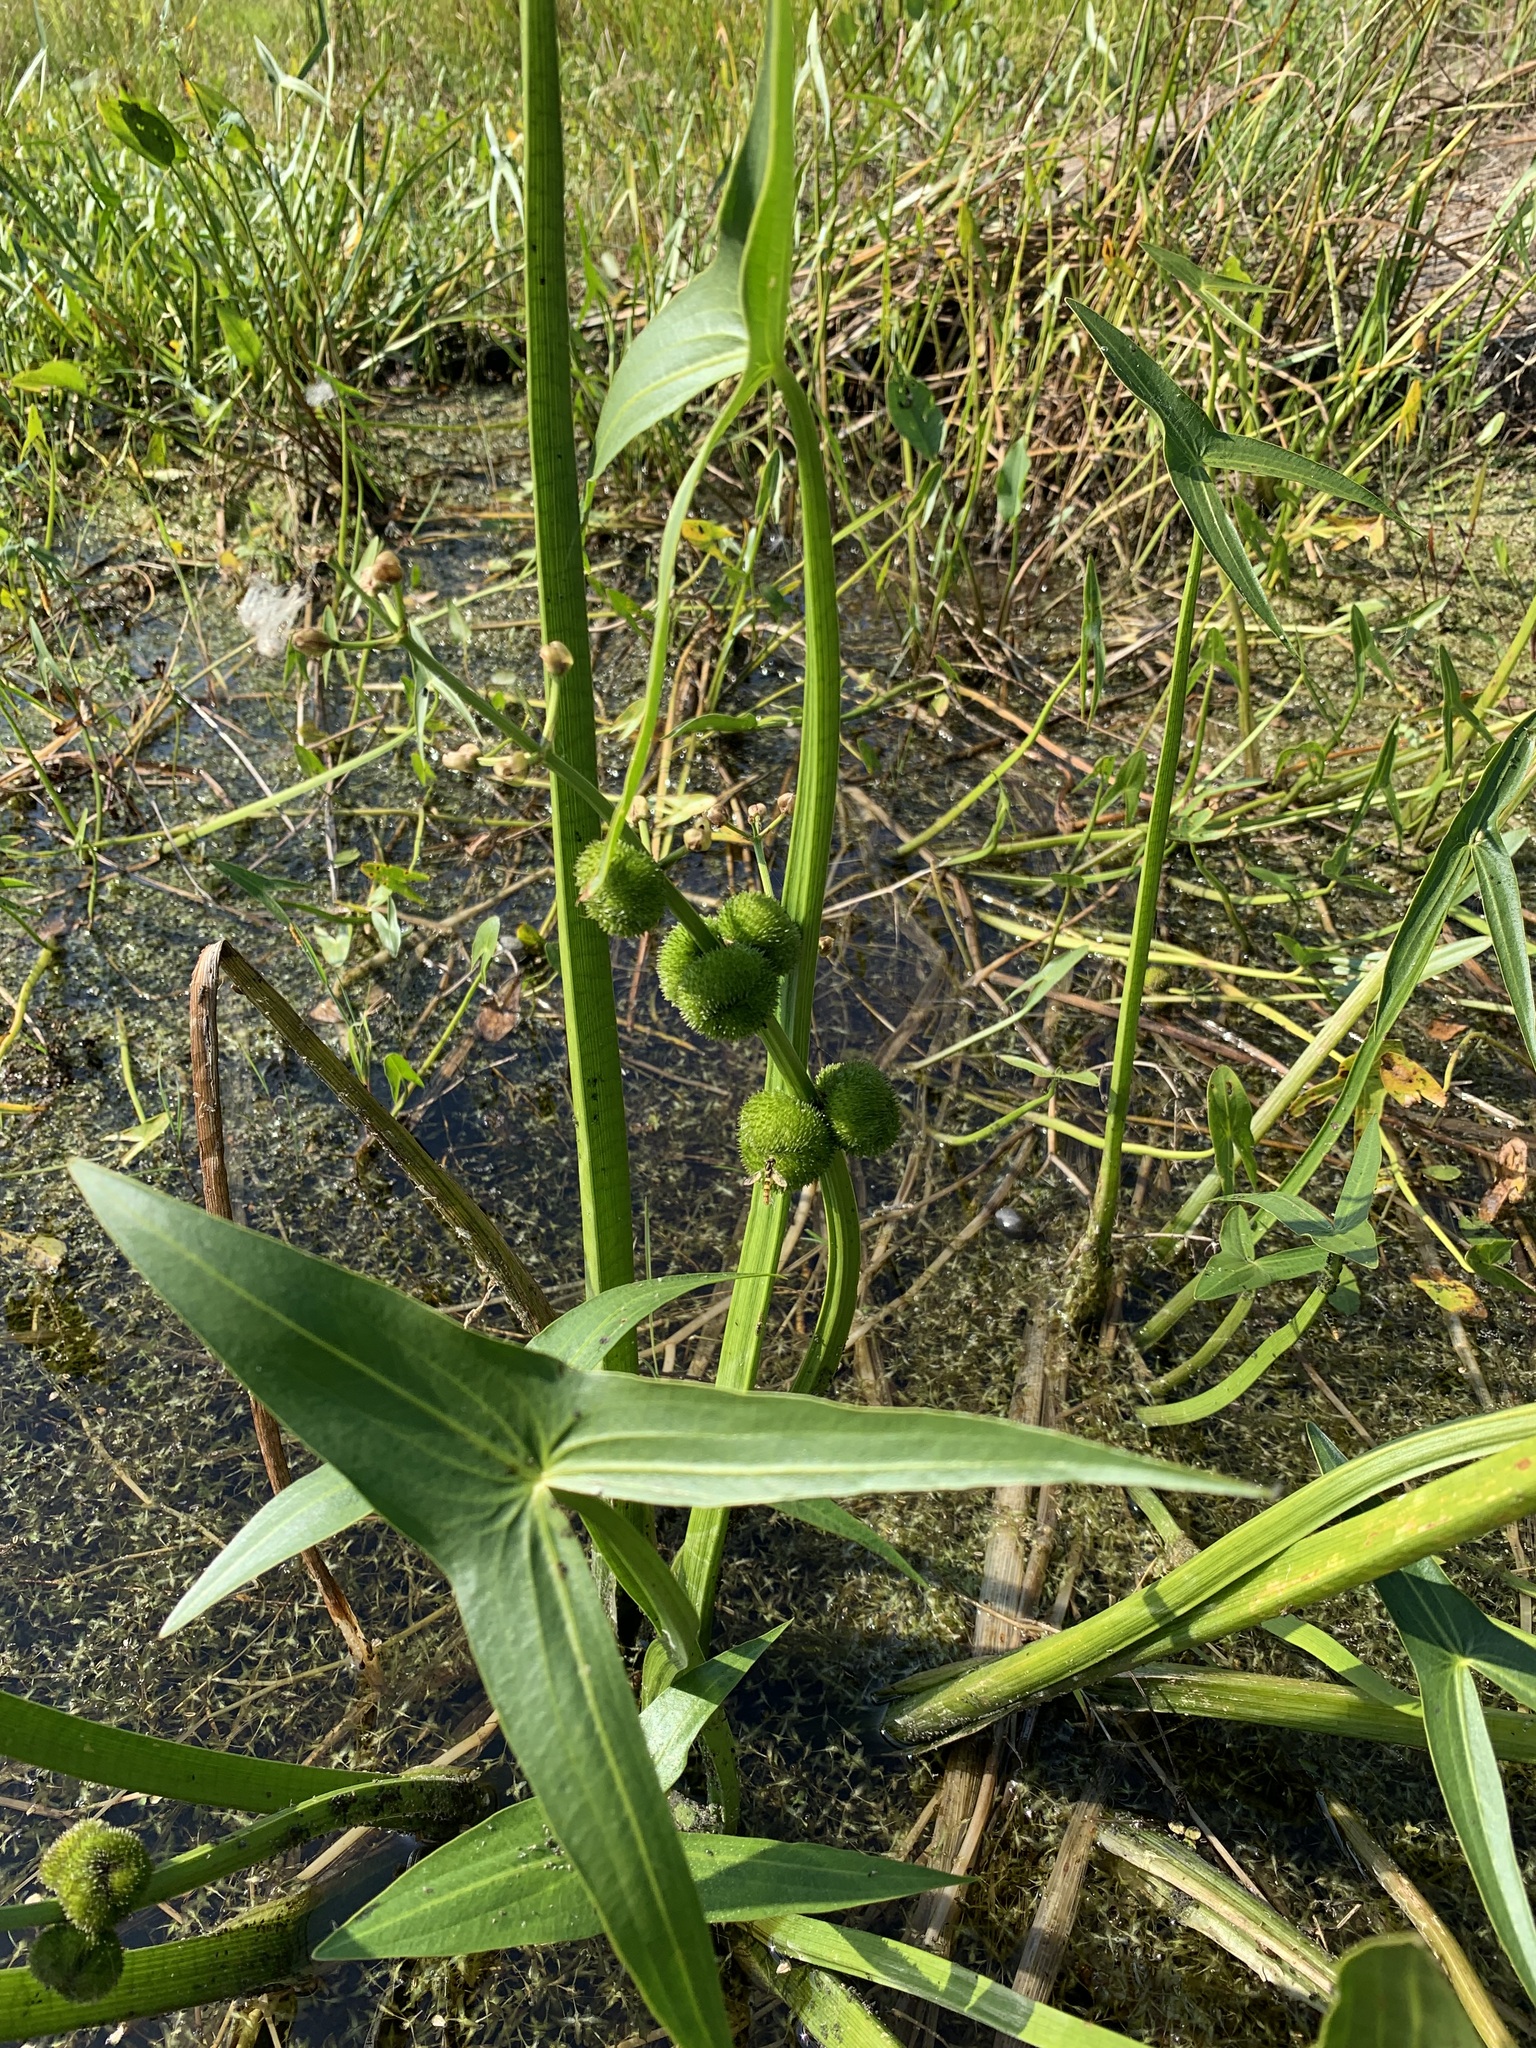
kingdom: Plantae
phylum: Tracheophyta
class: Liliopsida
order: Alismatales
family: Alismataceae
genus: Sagittaria
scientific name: Sagittaria sagittifolia
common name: Arrowhead
